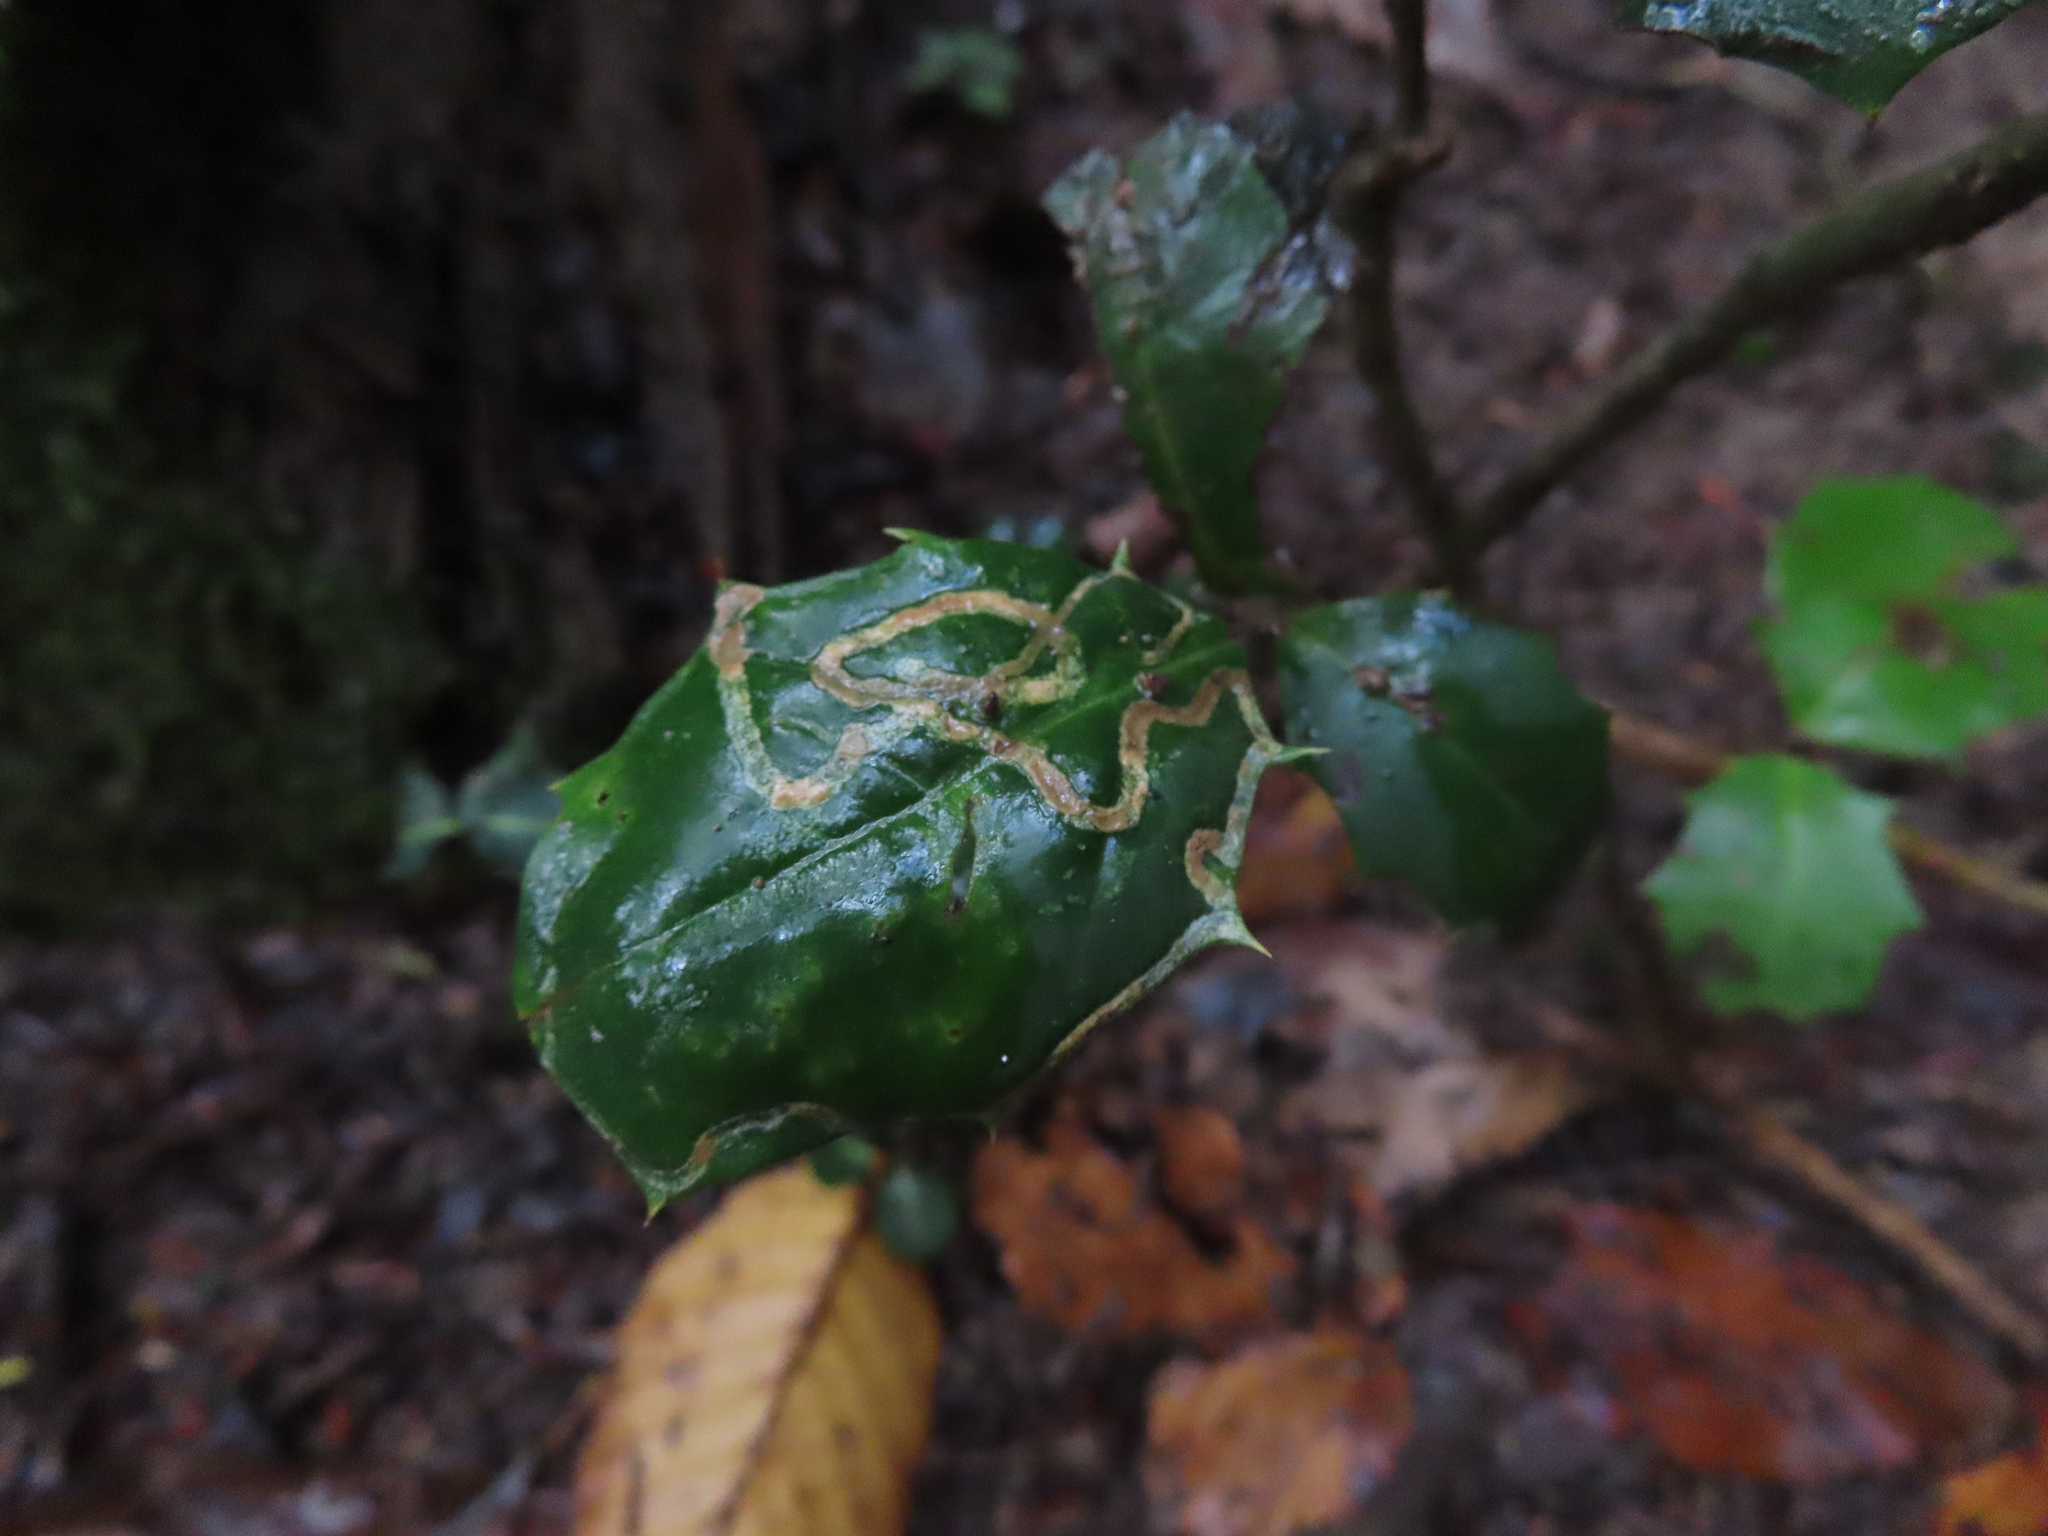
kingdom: Animalia
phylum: Arthropoda
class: Insecta
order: Diptera
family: Agromyzidae
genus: Phytomyza
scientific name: Phytomyza opacae
